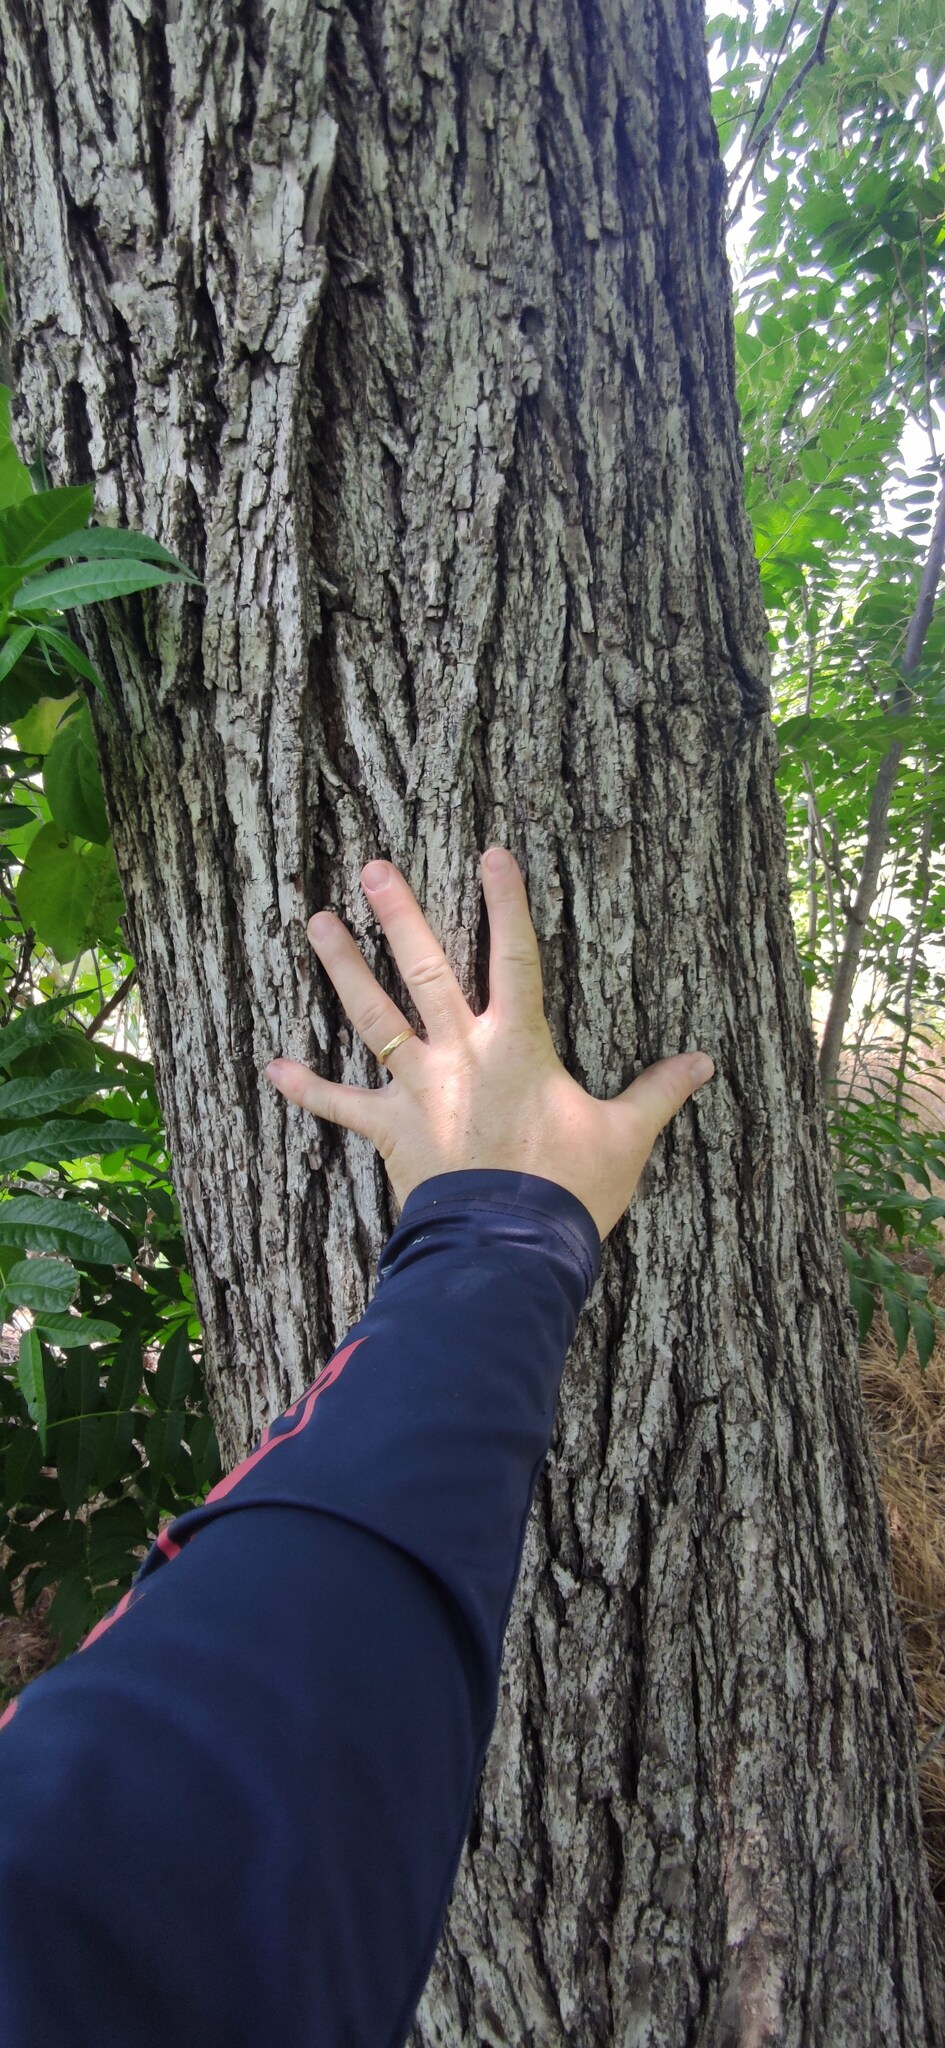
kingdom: Plantae
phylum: Tracheophyta
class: Magnoliopsida
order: Fagales
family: Juglandaceae
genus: Juglans
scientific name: Juglans californica
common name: Southern california black walnut
